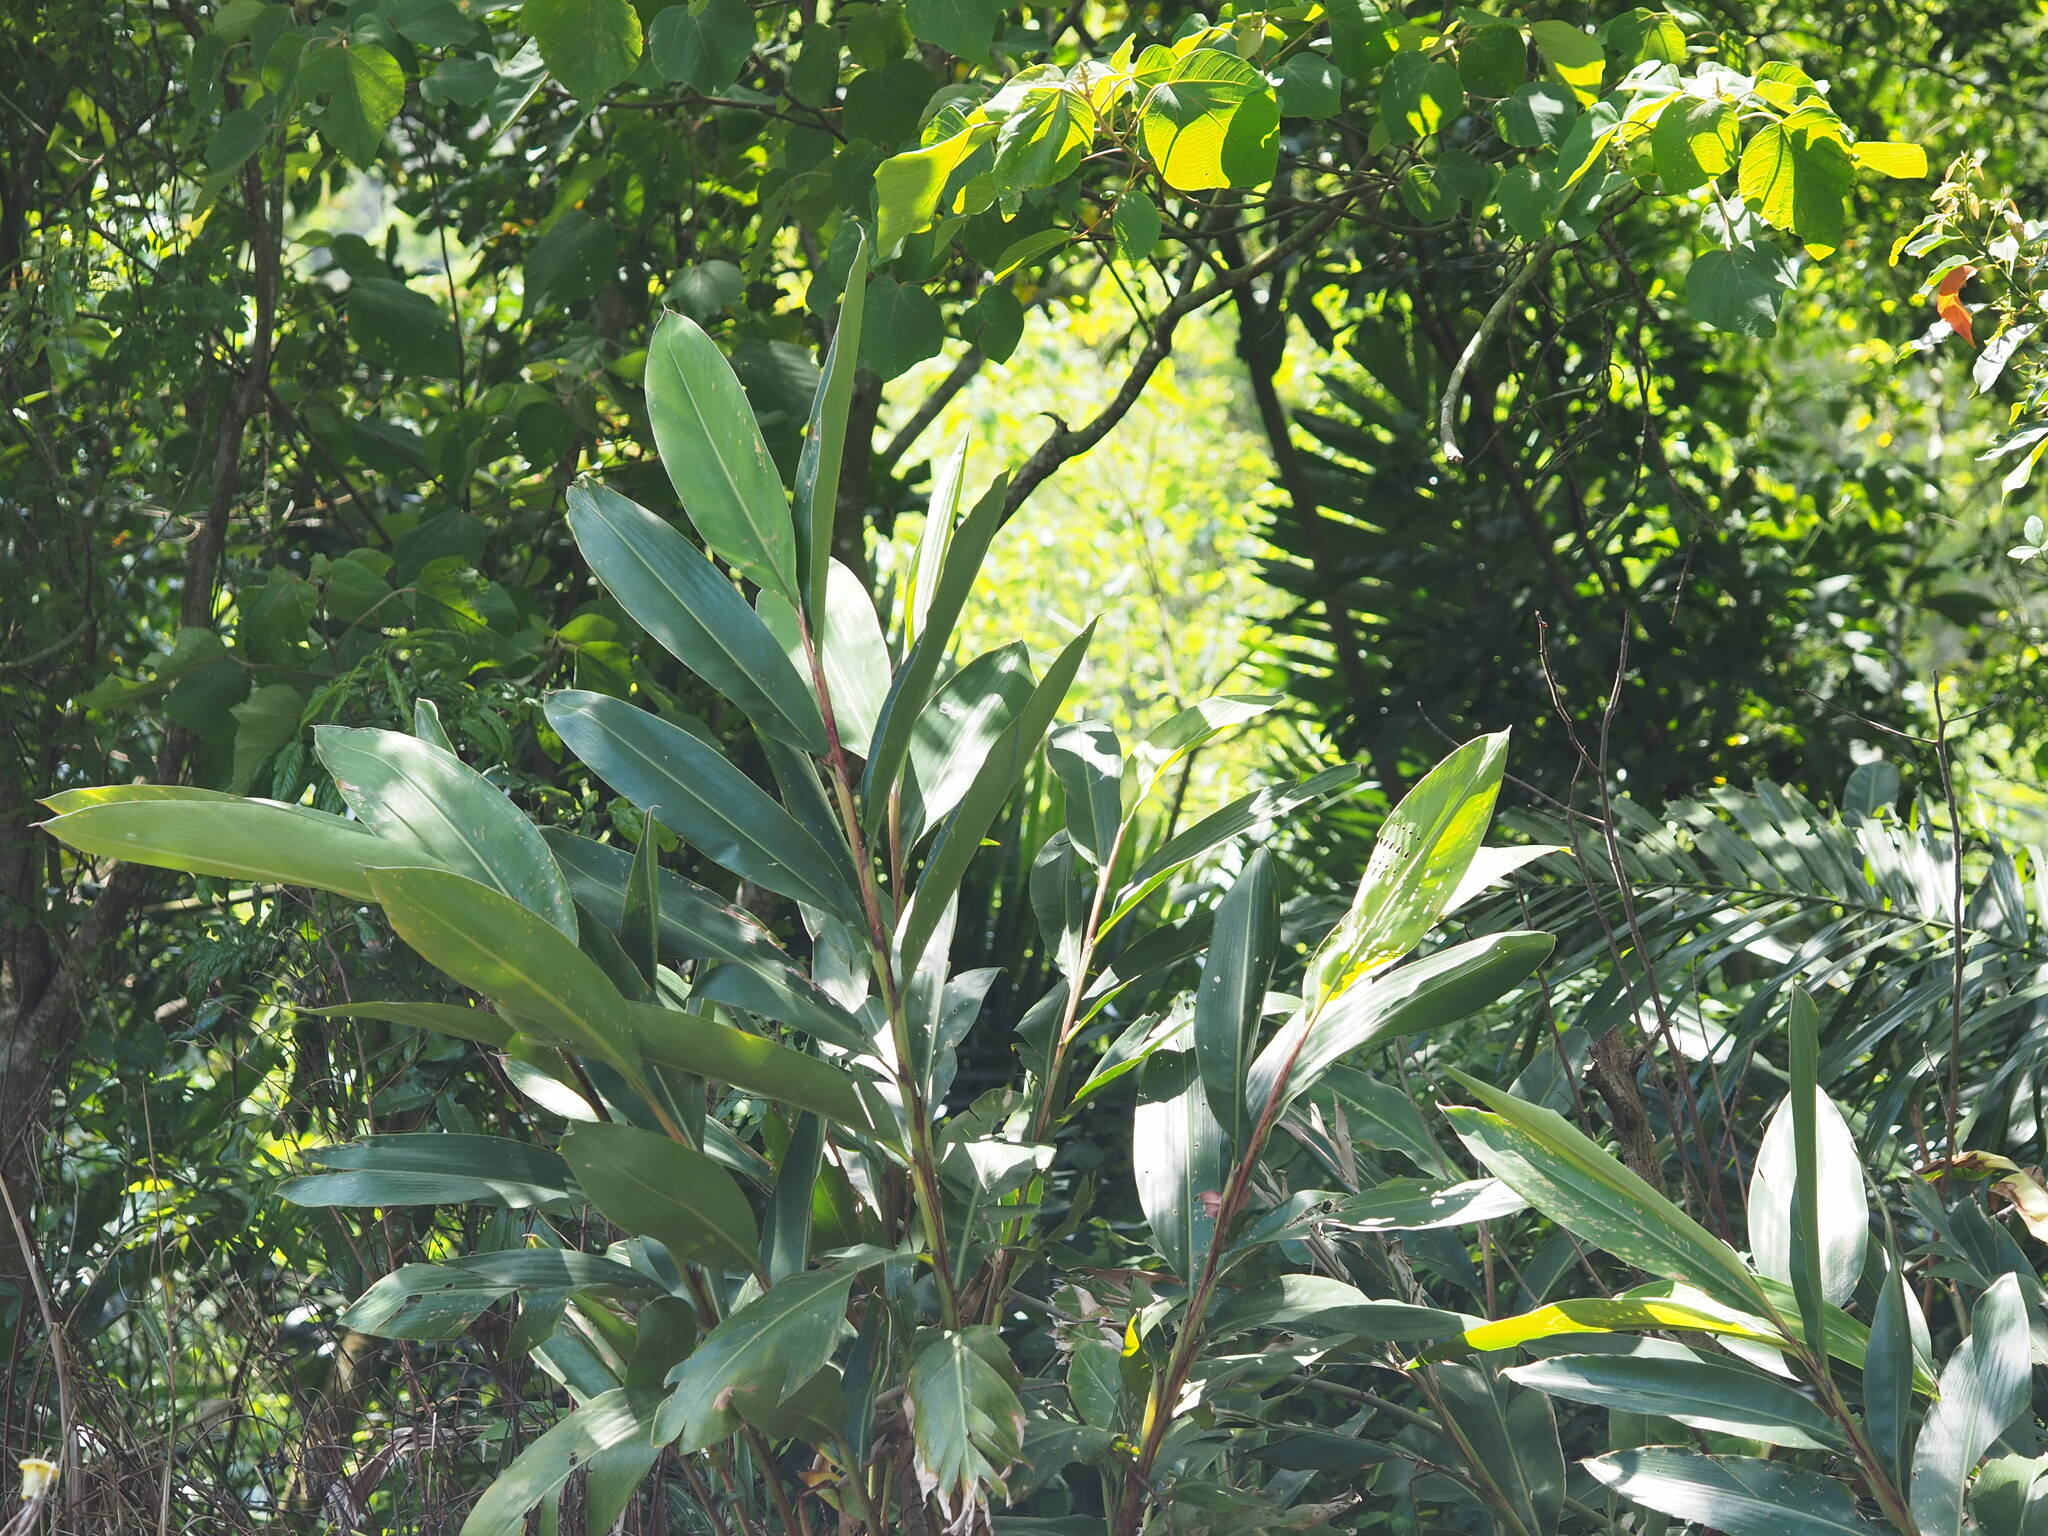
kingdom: Plantae
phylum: Tracheophyta
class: Liliopsida
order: Zingiberales
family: Zingiberaceae
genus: Alpinia
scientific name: Alpinia zerumbet
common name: Shellplant
